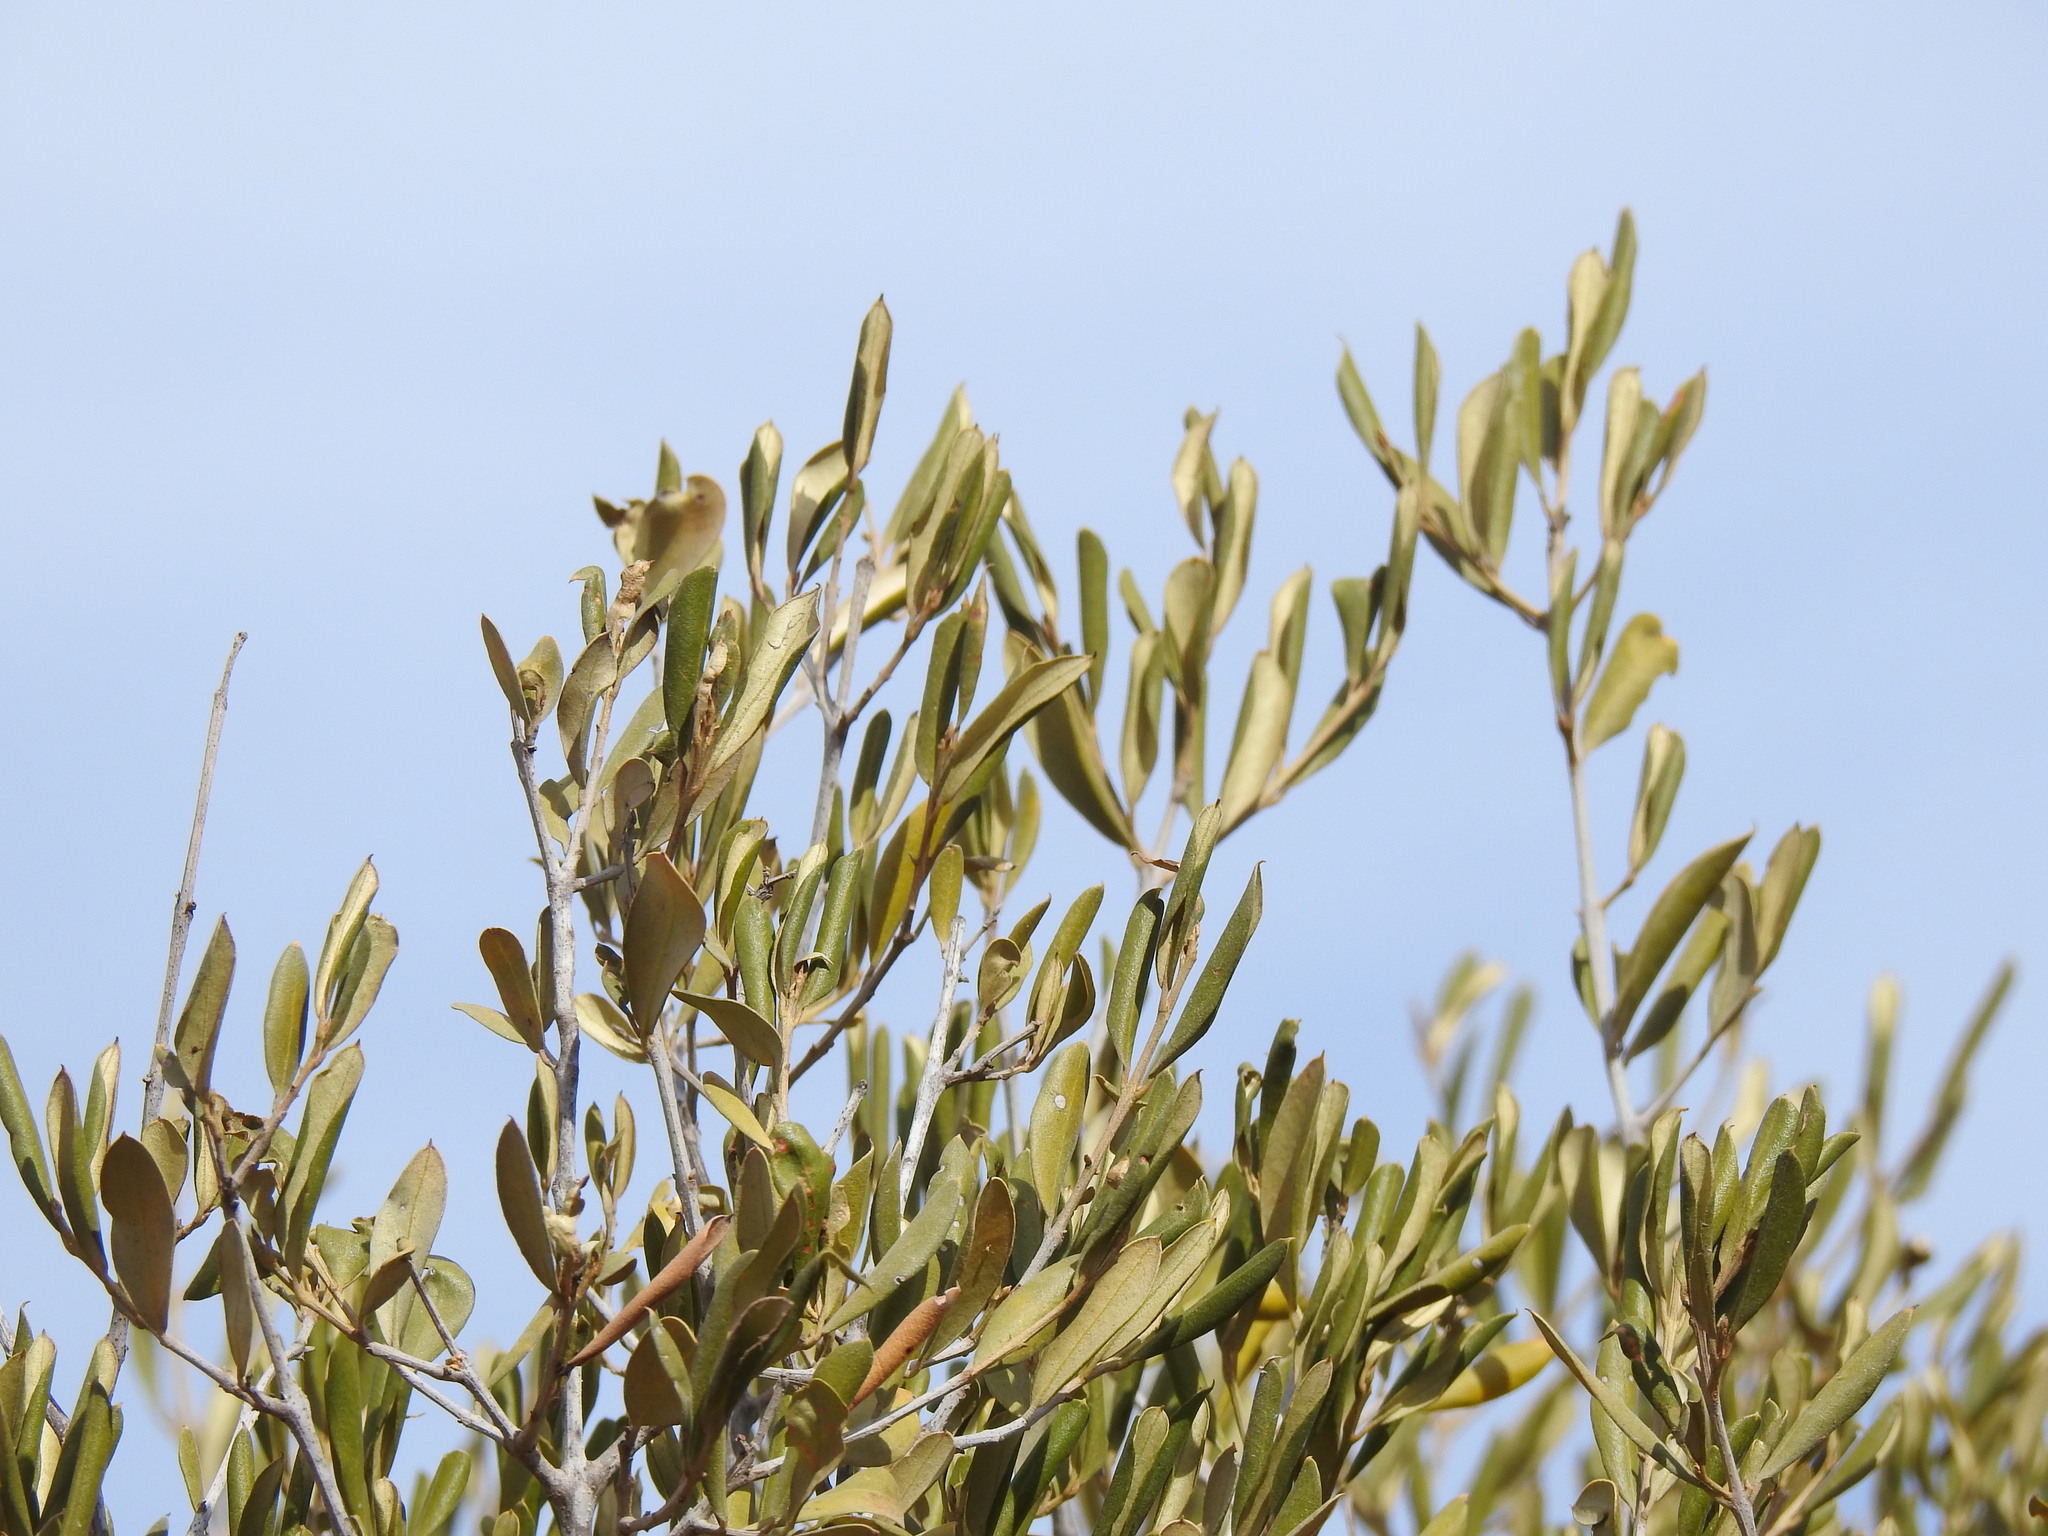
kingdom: Plantae
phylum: Tracheophyta
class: Magnoliopsida
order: Lamiales
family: Oleaceae
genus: Olea
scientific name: Olea europaea
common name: Olive
